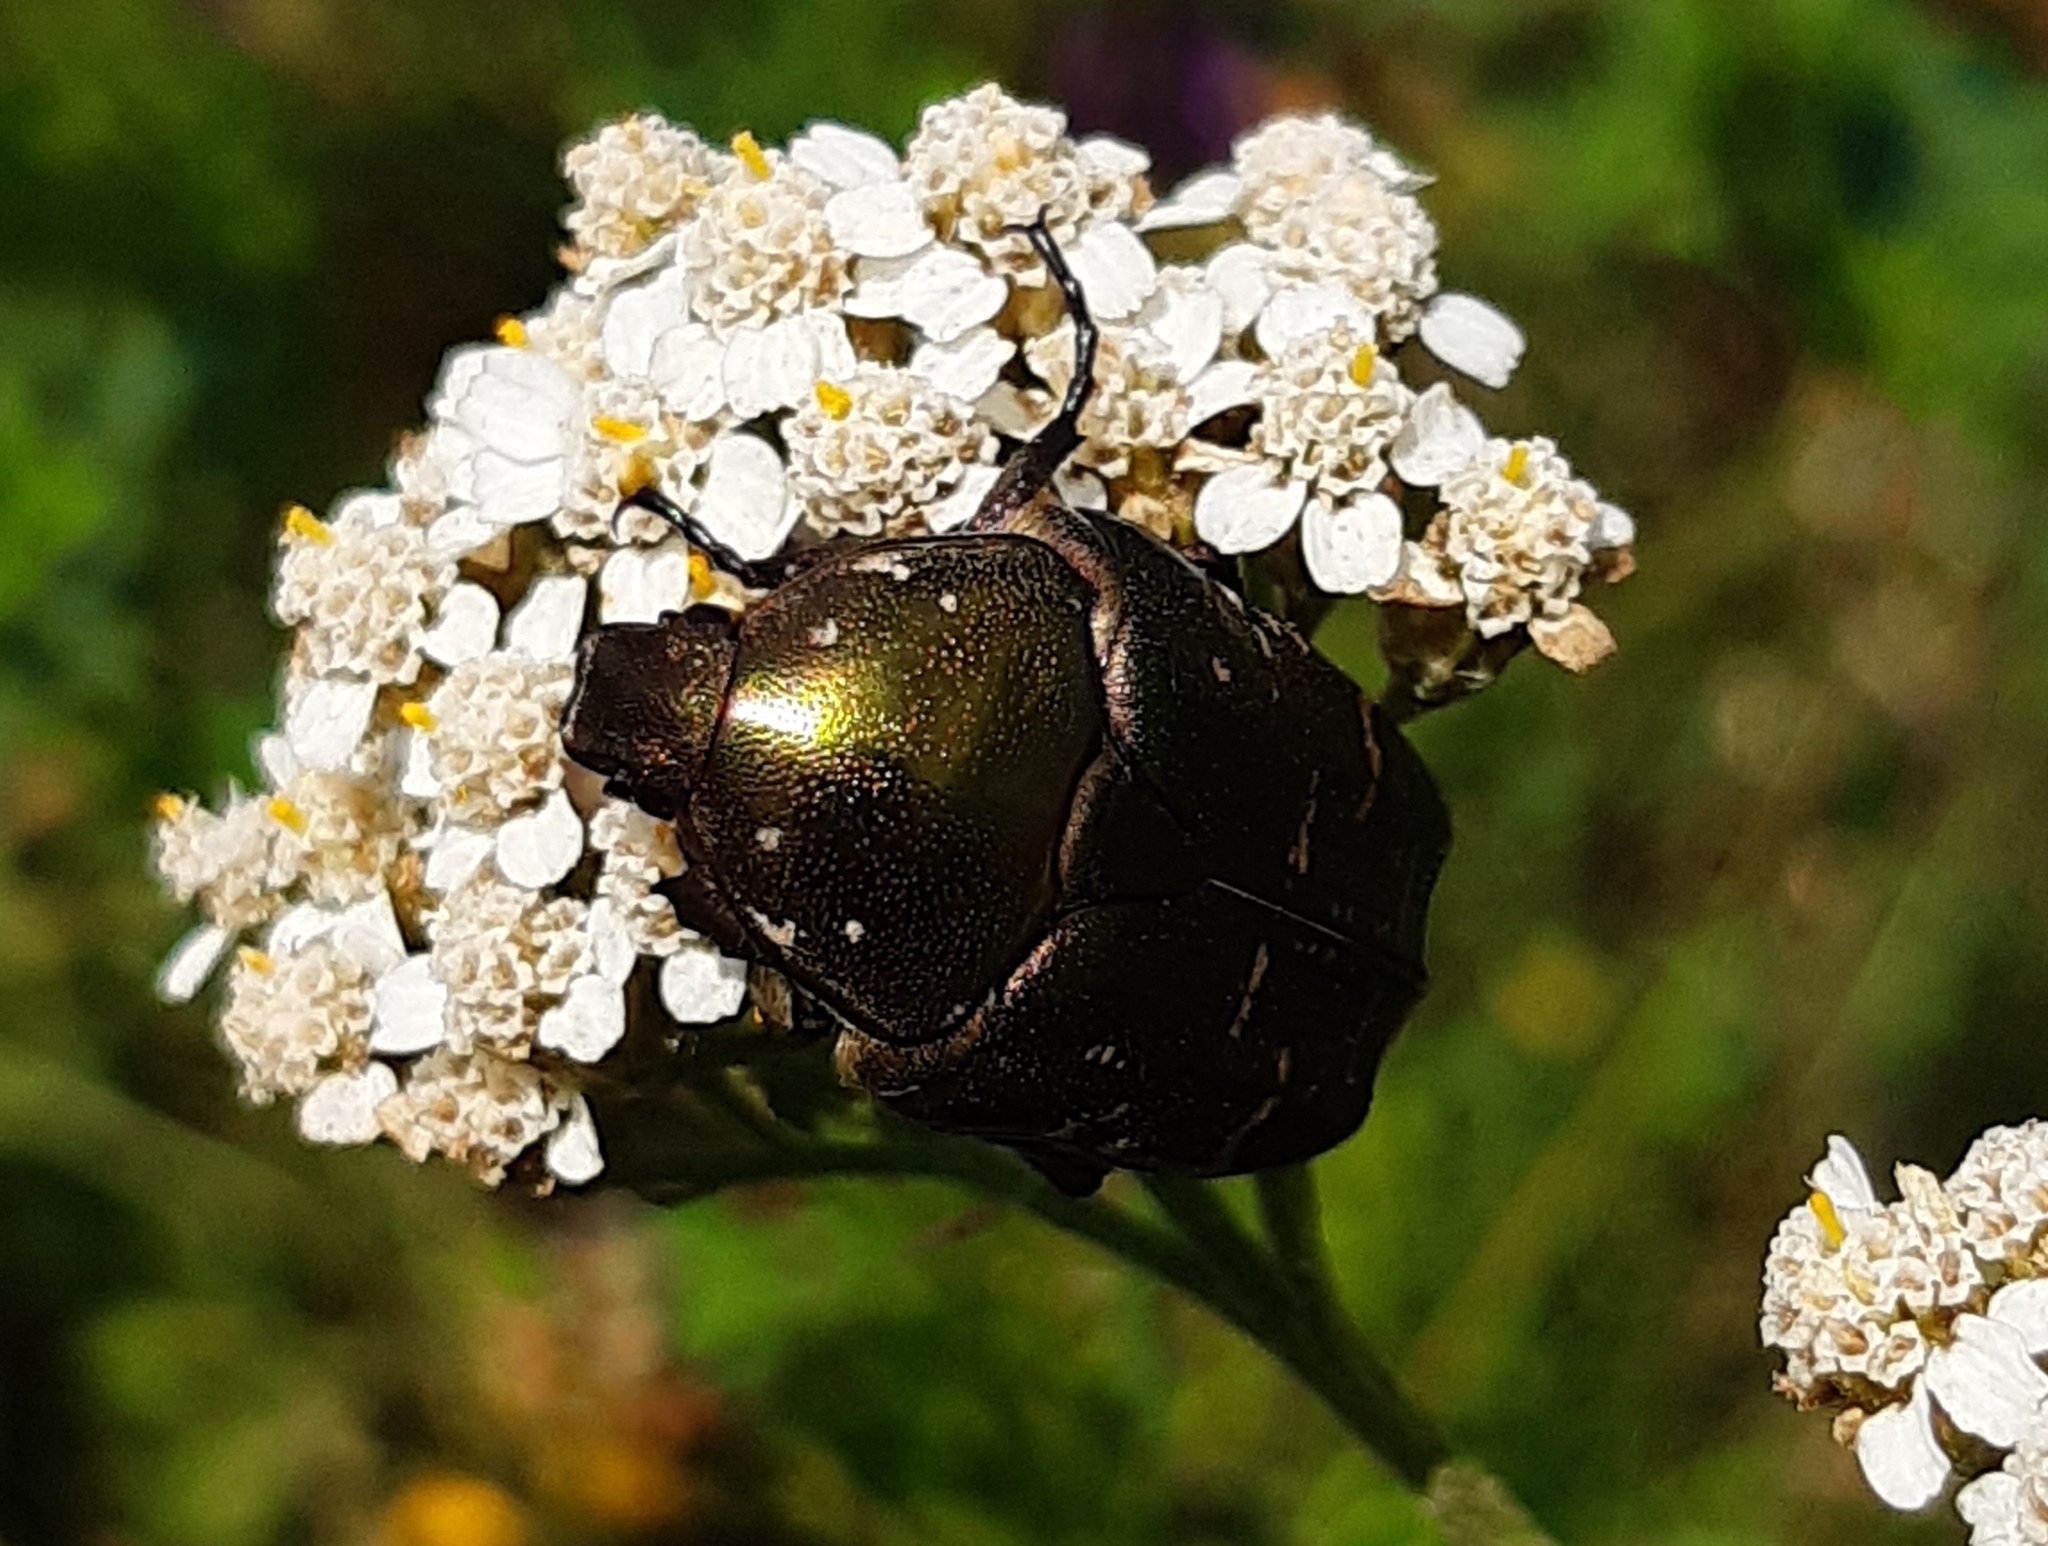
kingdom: Animalia
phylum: Arthropoda
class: Insecta
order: Coleoptera
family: Scarabaeidae
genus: Protaetia
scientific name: Protaetia cuprea
